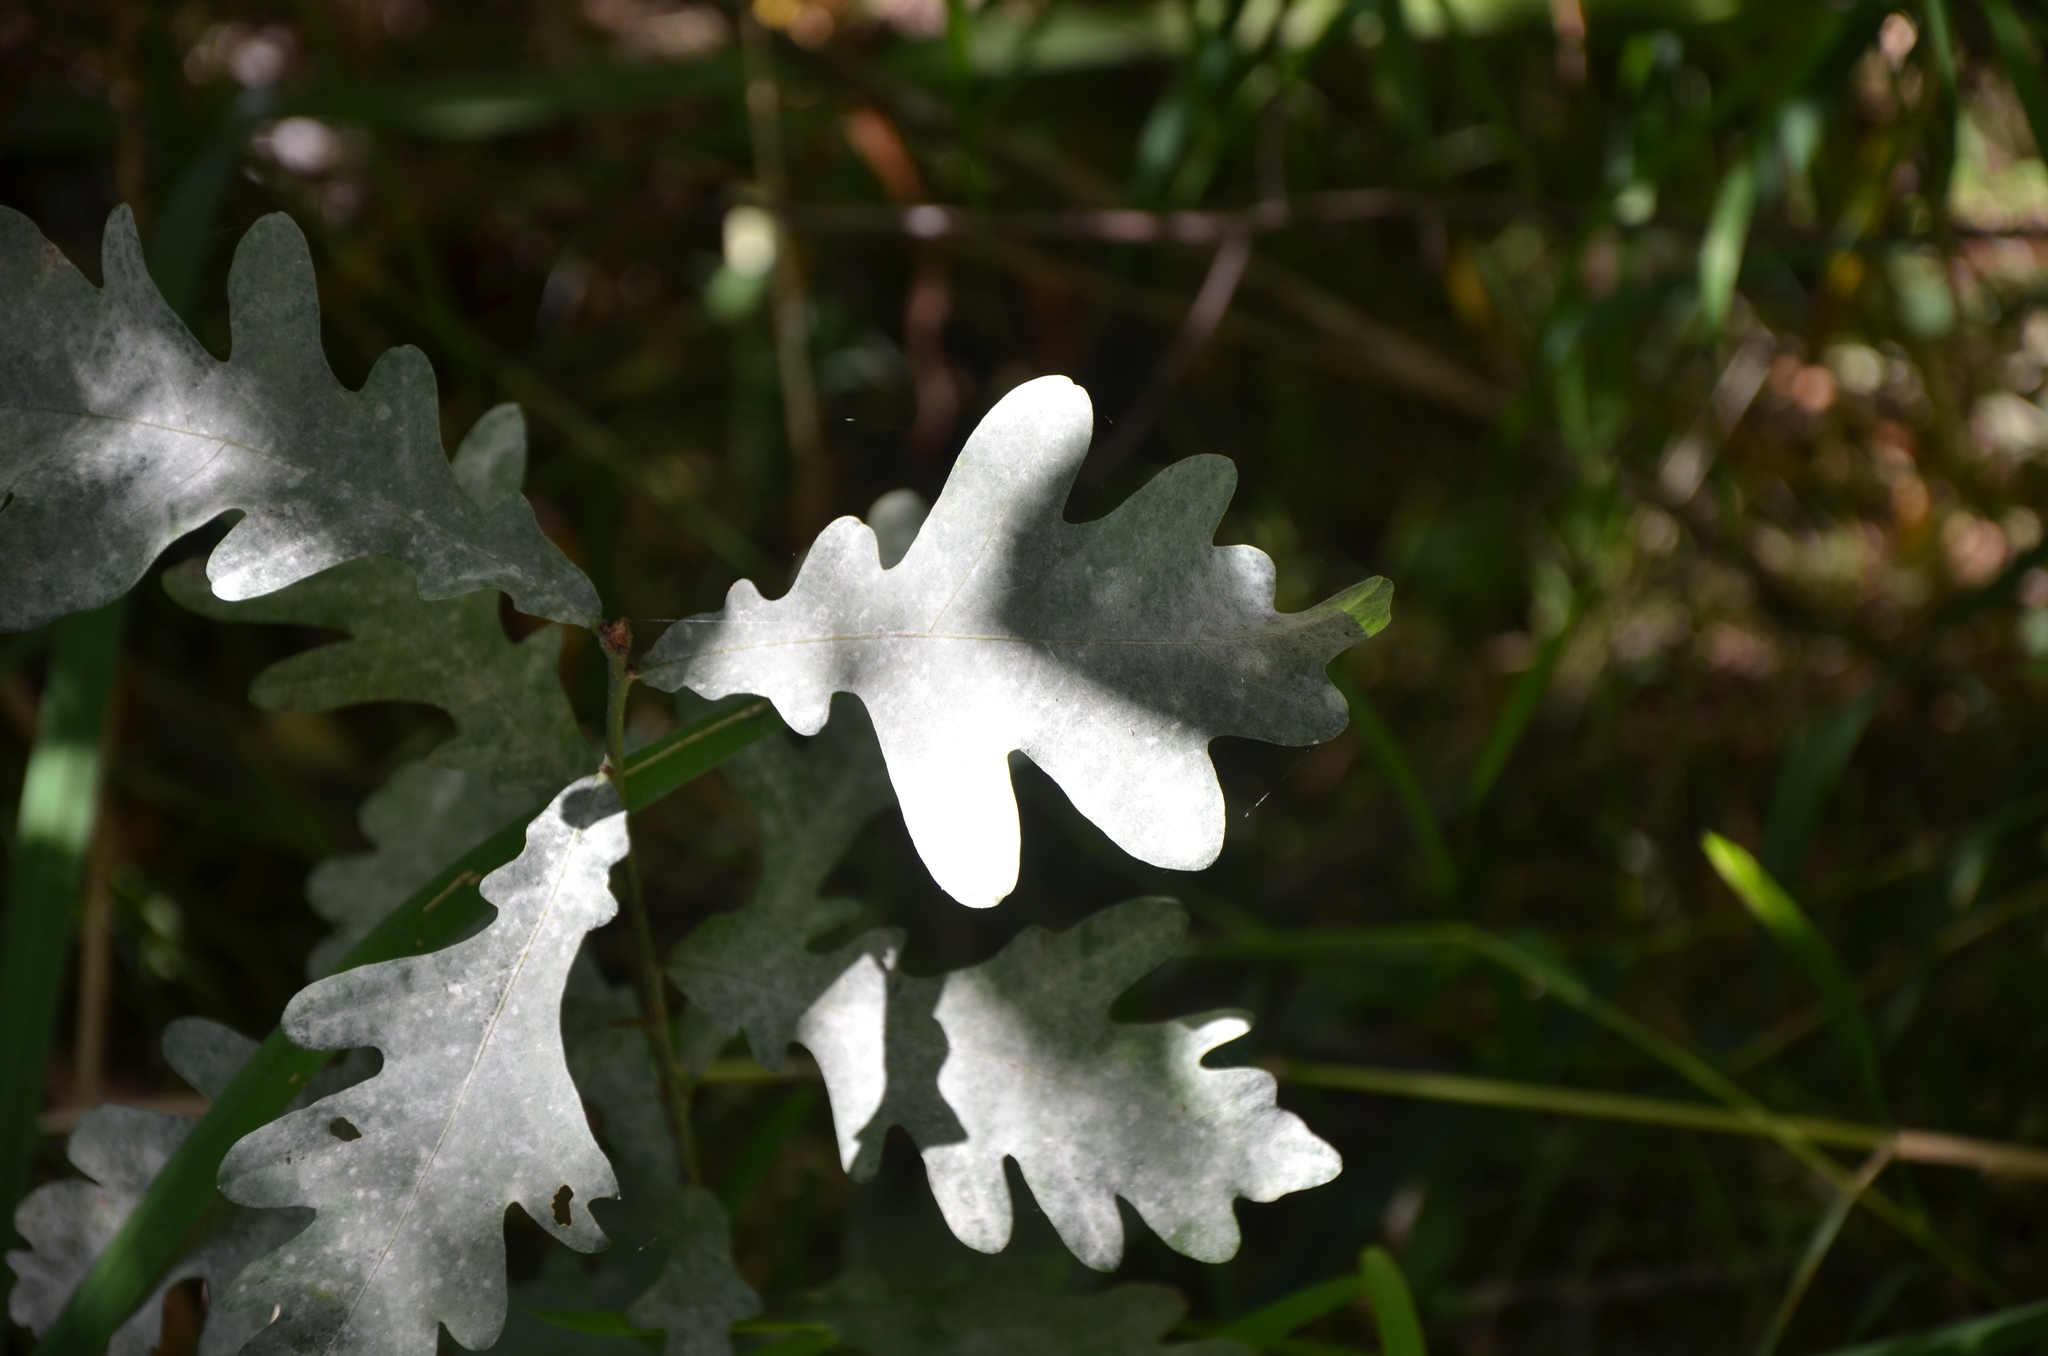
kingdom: Plantae
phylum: Tracheophyta
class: Magnoliopsida
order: Fagales
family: Fagaceae
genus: Quercus
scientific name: Quercus robur
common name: Pedunculate oak
